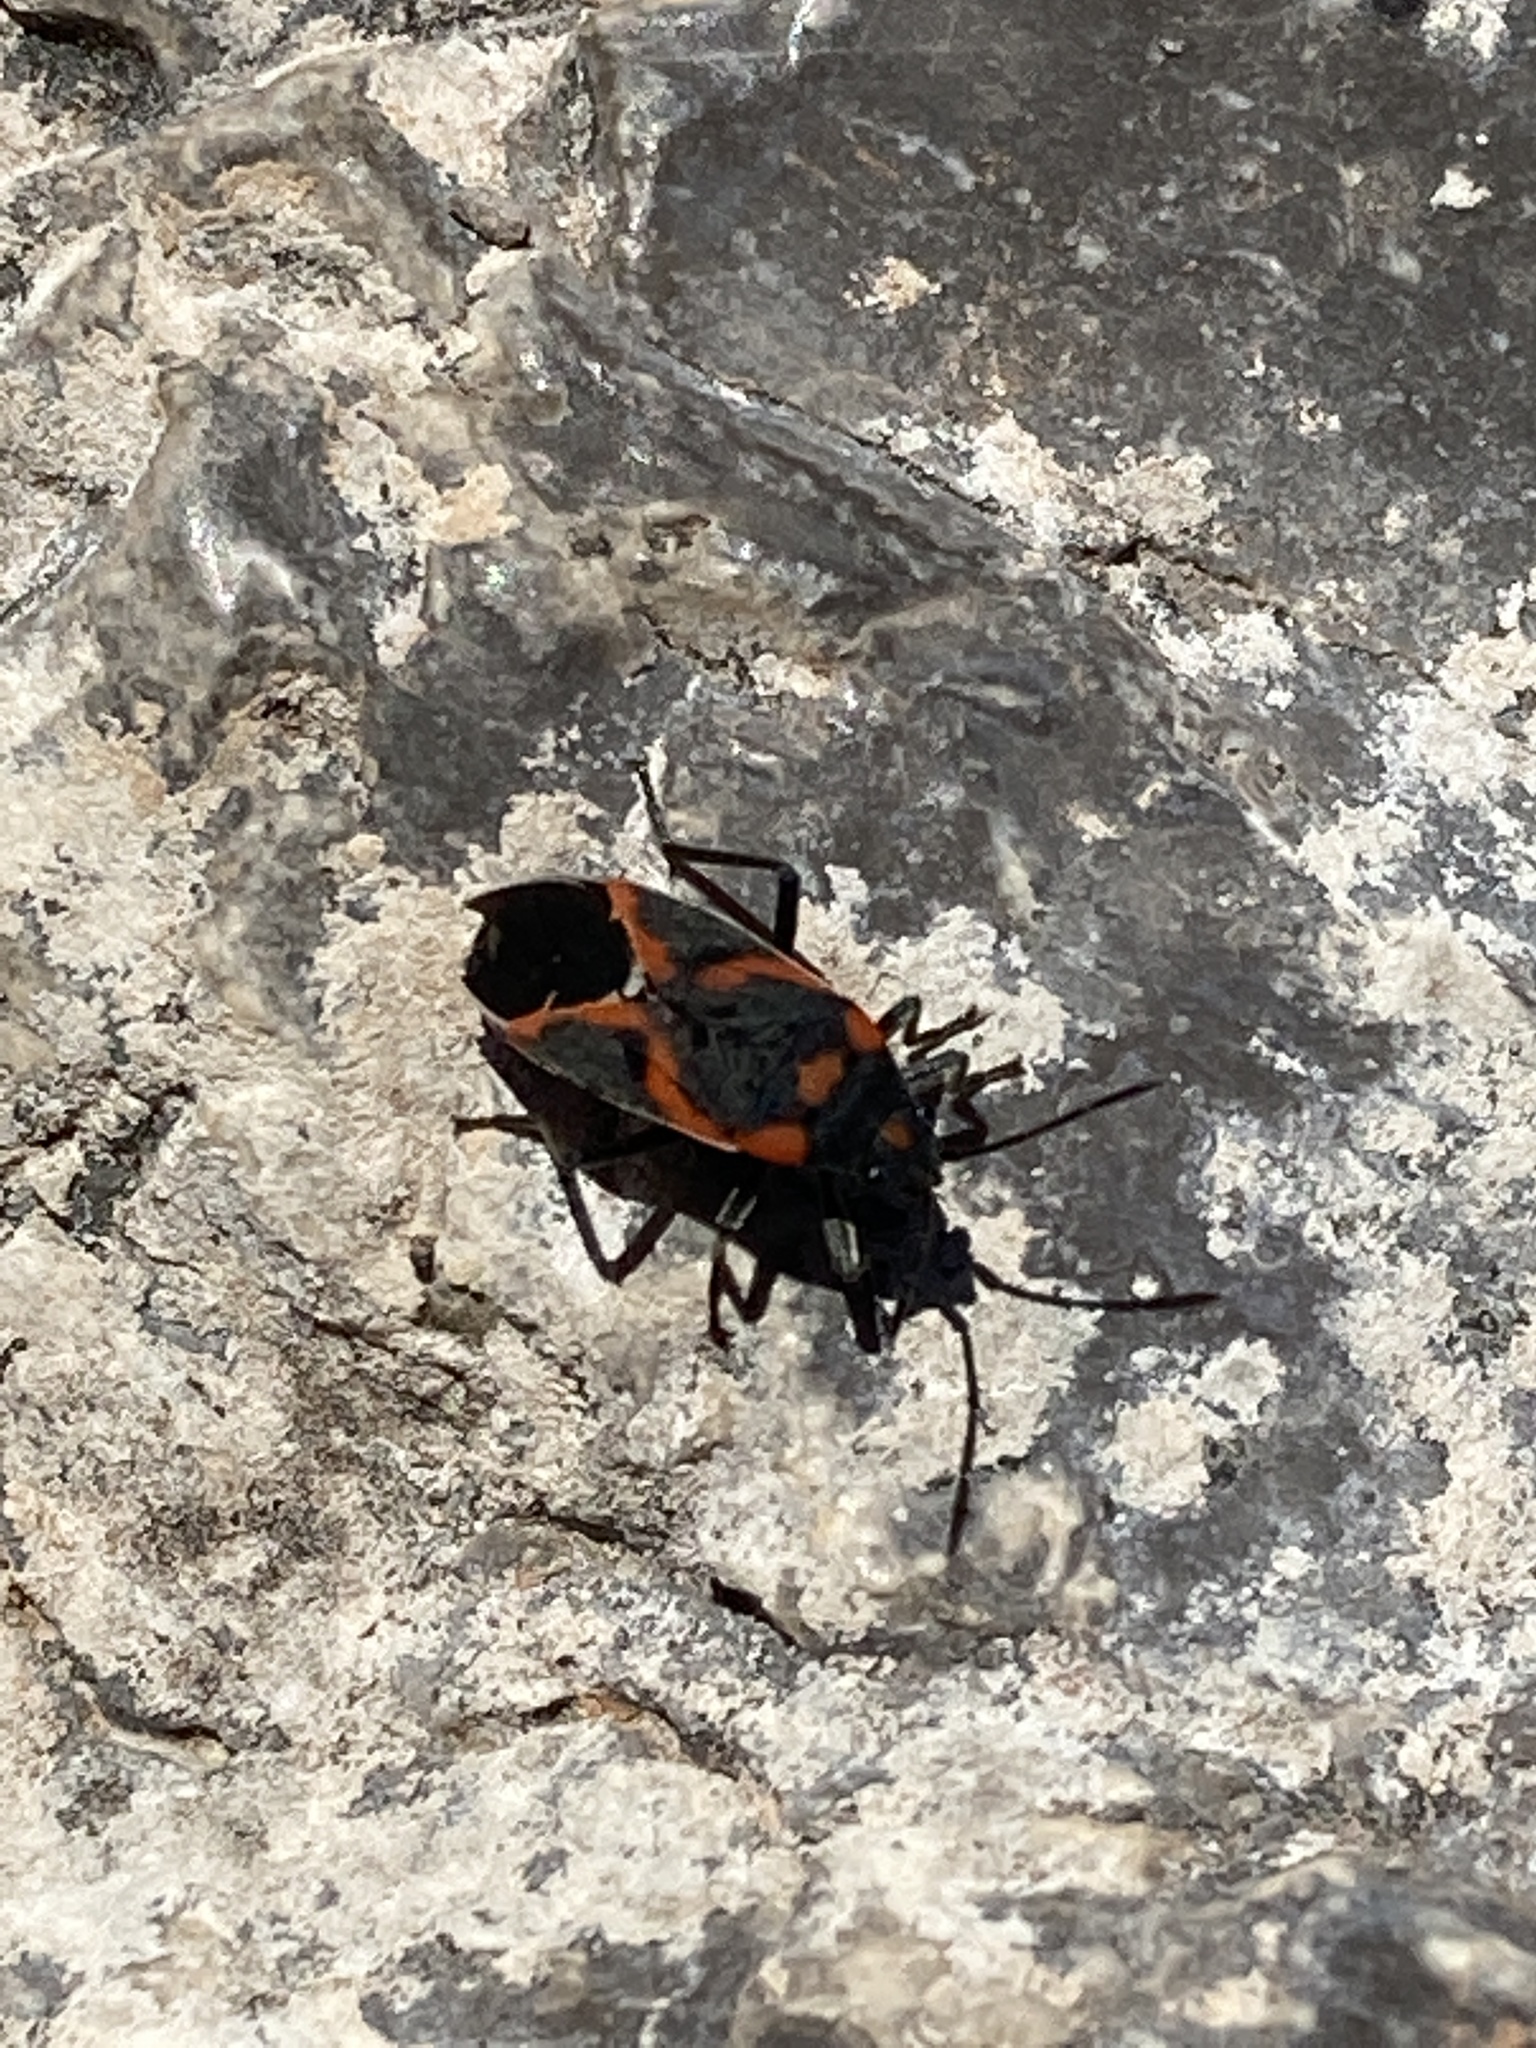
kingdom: Animalia
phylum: Arthropoda
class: Insecta
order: Hemiptera
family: Lygaeidae
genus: Lygaeus
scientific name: Lygaeus kalmii
